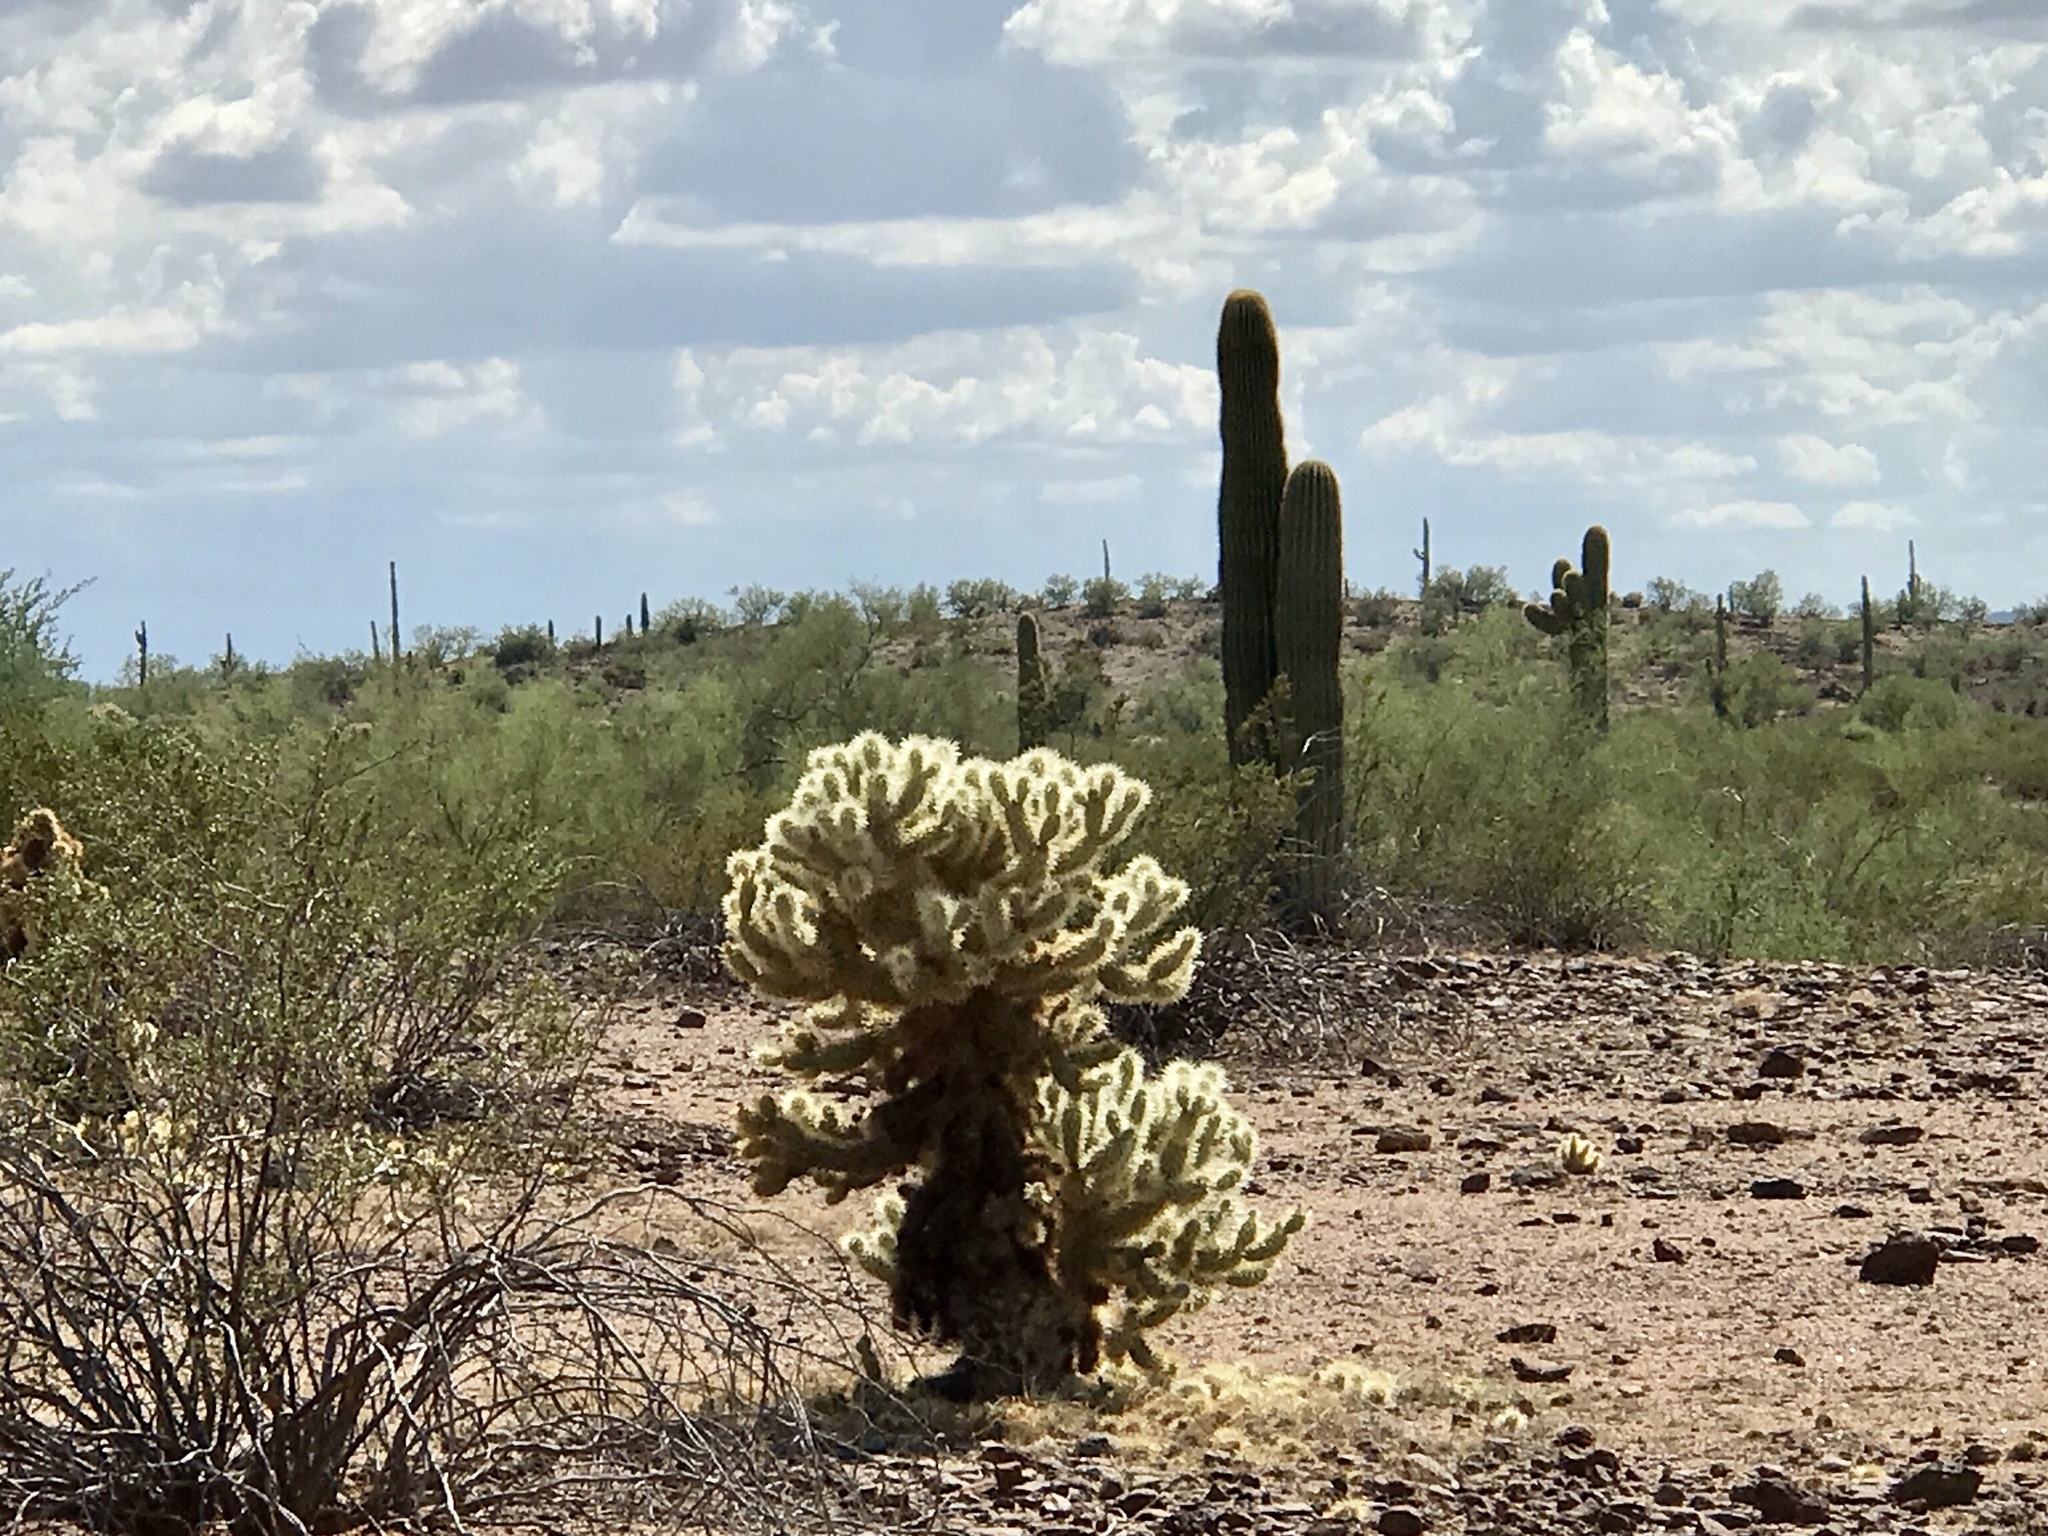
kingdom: Plantae
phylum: Tracheophyta
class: Magnoliopsida
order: Caryophyllales
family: Cactaceae
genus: Cylindropuntia
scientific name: Cylindropuntia fosbergii
